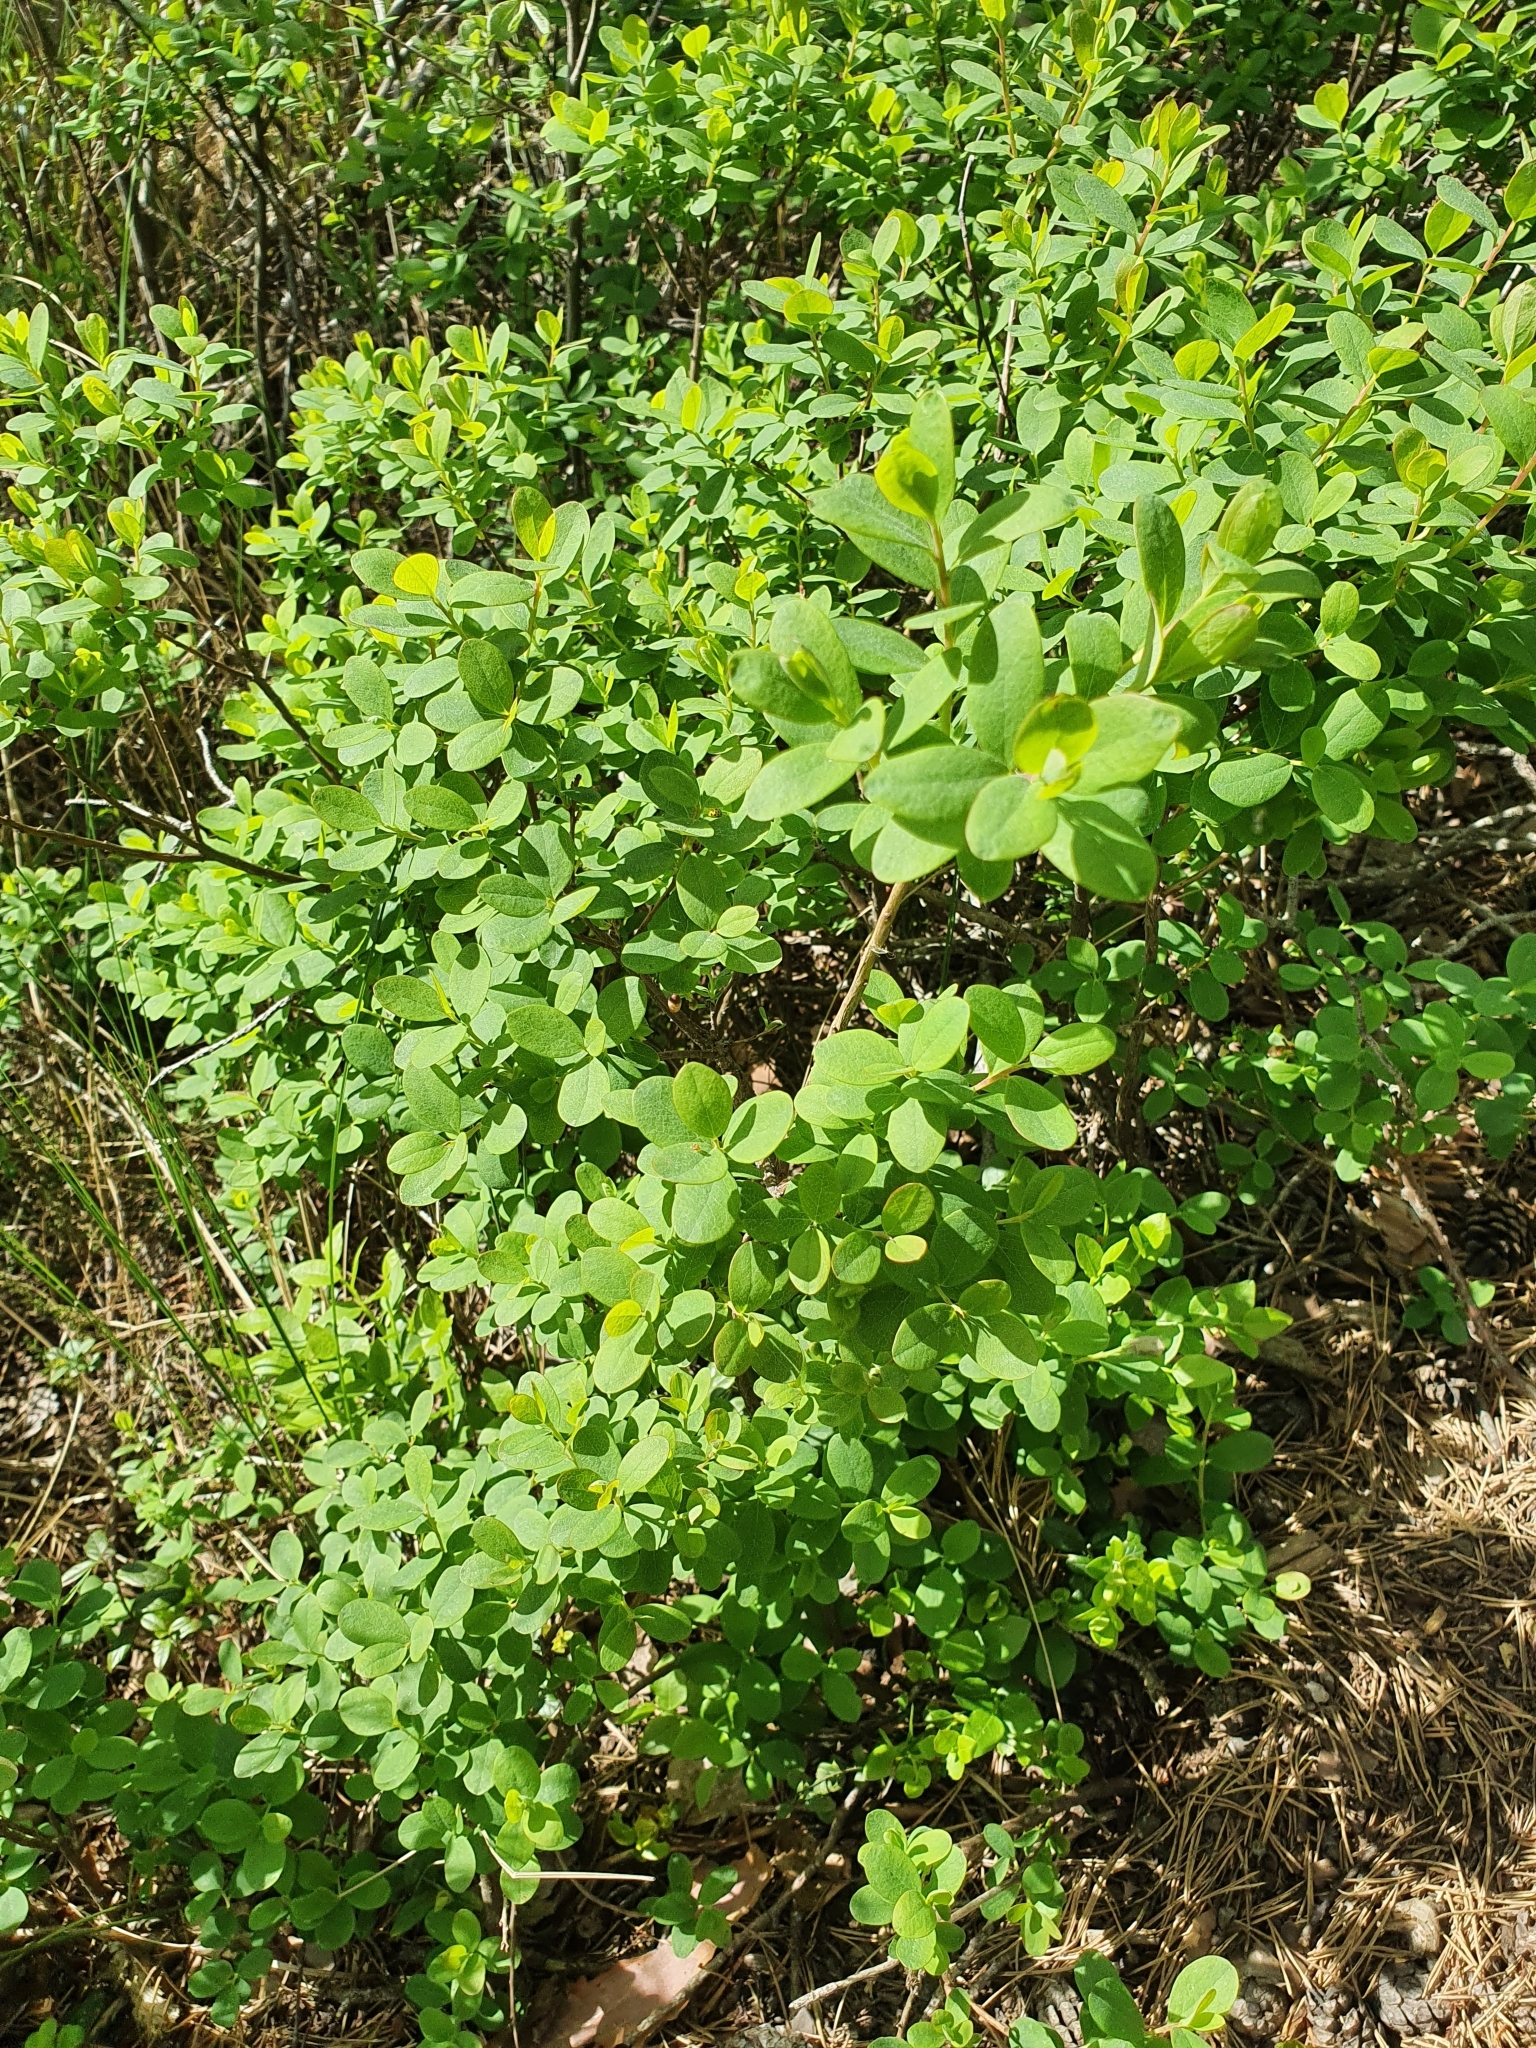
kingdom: Plantae
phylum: Tracheophyta
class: Magnoliopsida
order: Ericales
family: Ericaceae
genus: Vaccinium
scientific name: Vaccinium uliginosum
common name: Bog bilberry
